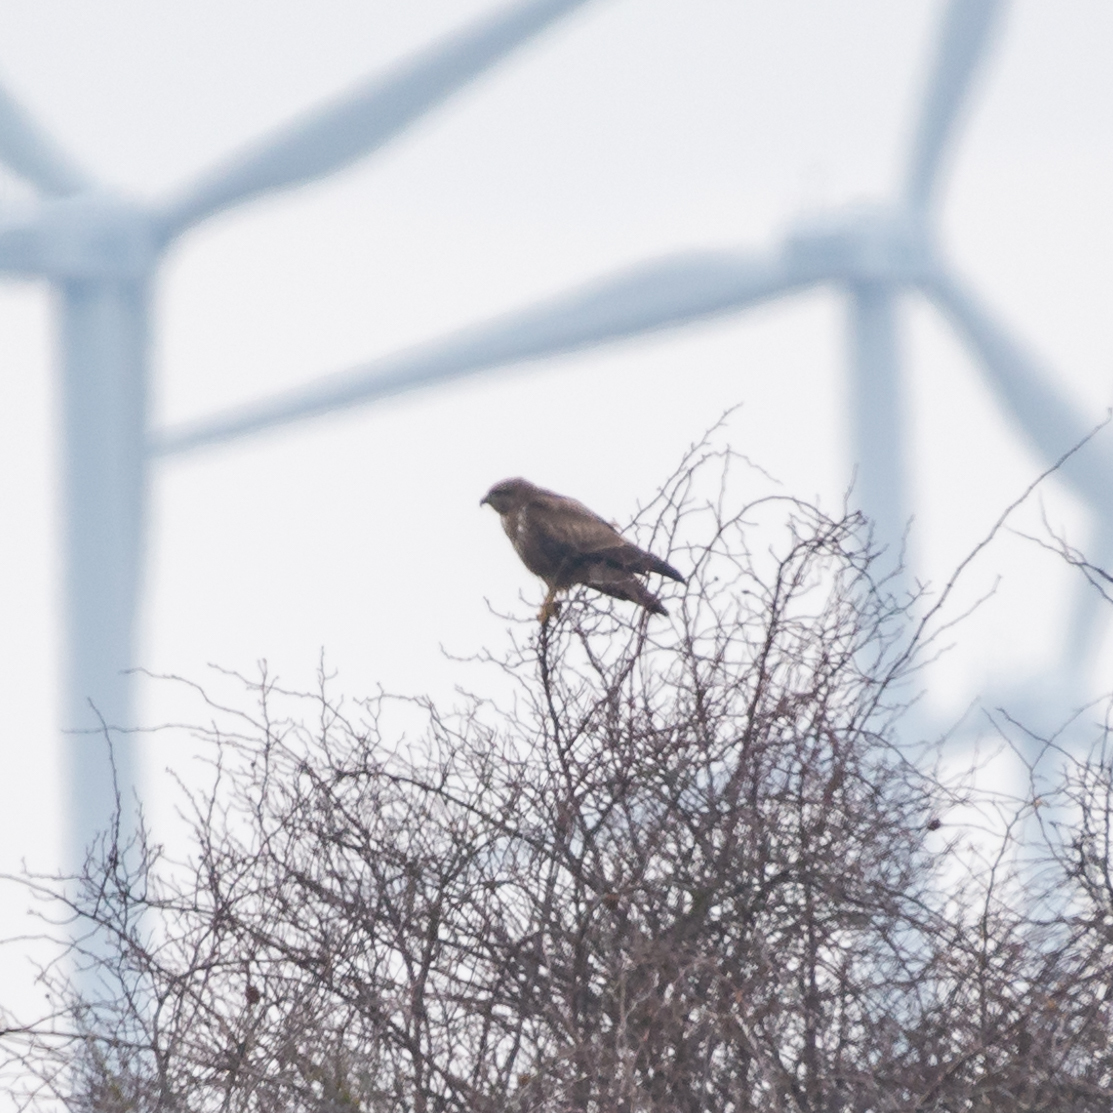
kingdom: Animalia
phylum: Chordata
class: Aves
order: Accipitriformes
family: Accipitridae
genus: Buteo
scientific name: Buteo buteo
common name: Common buzzard
